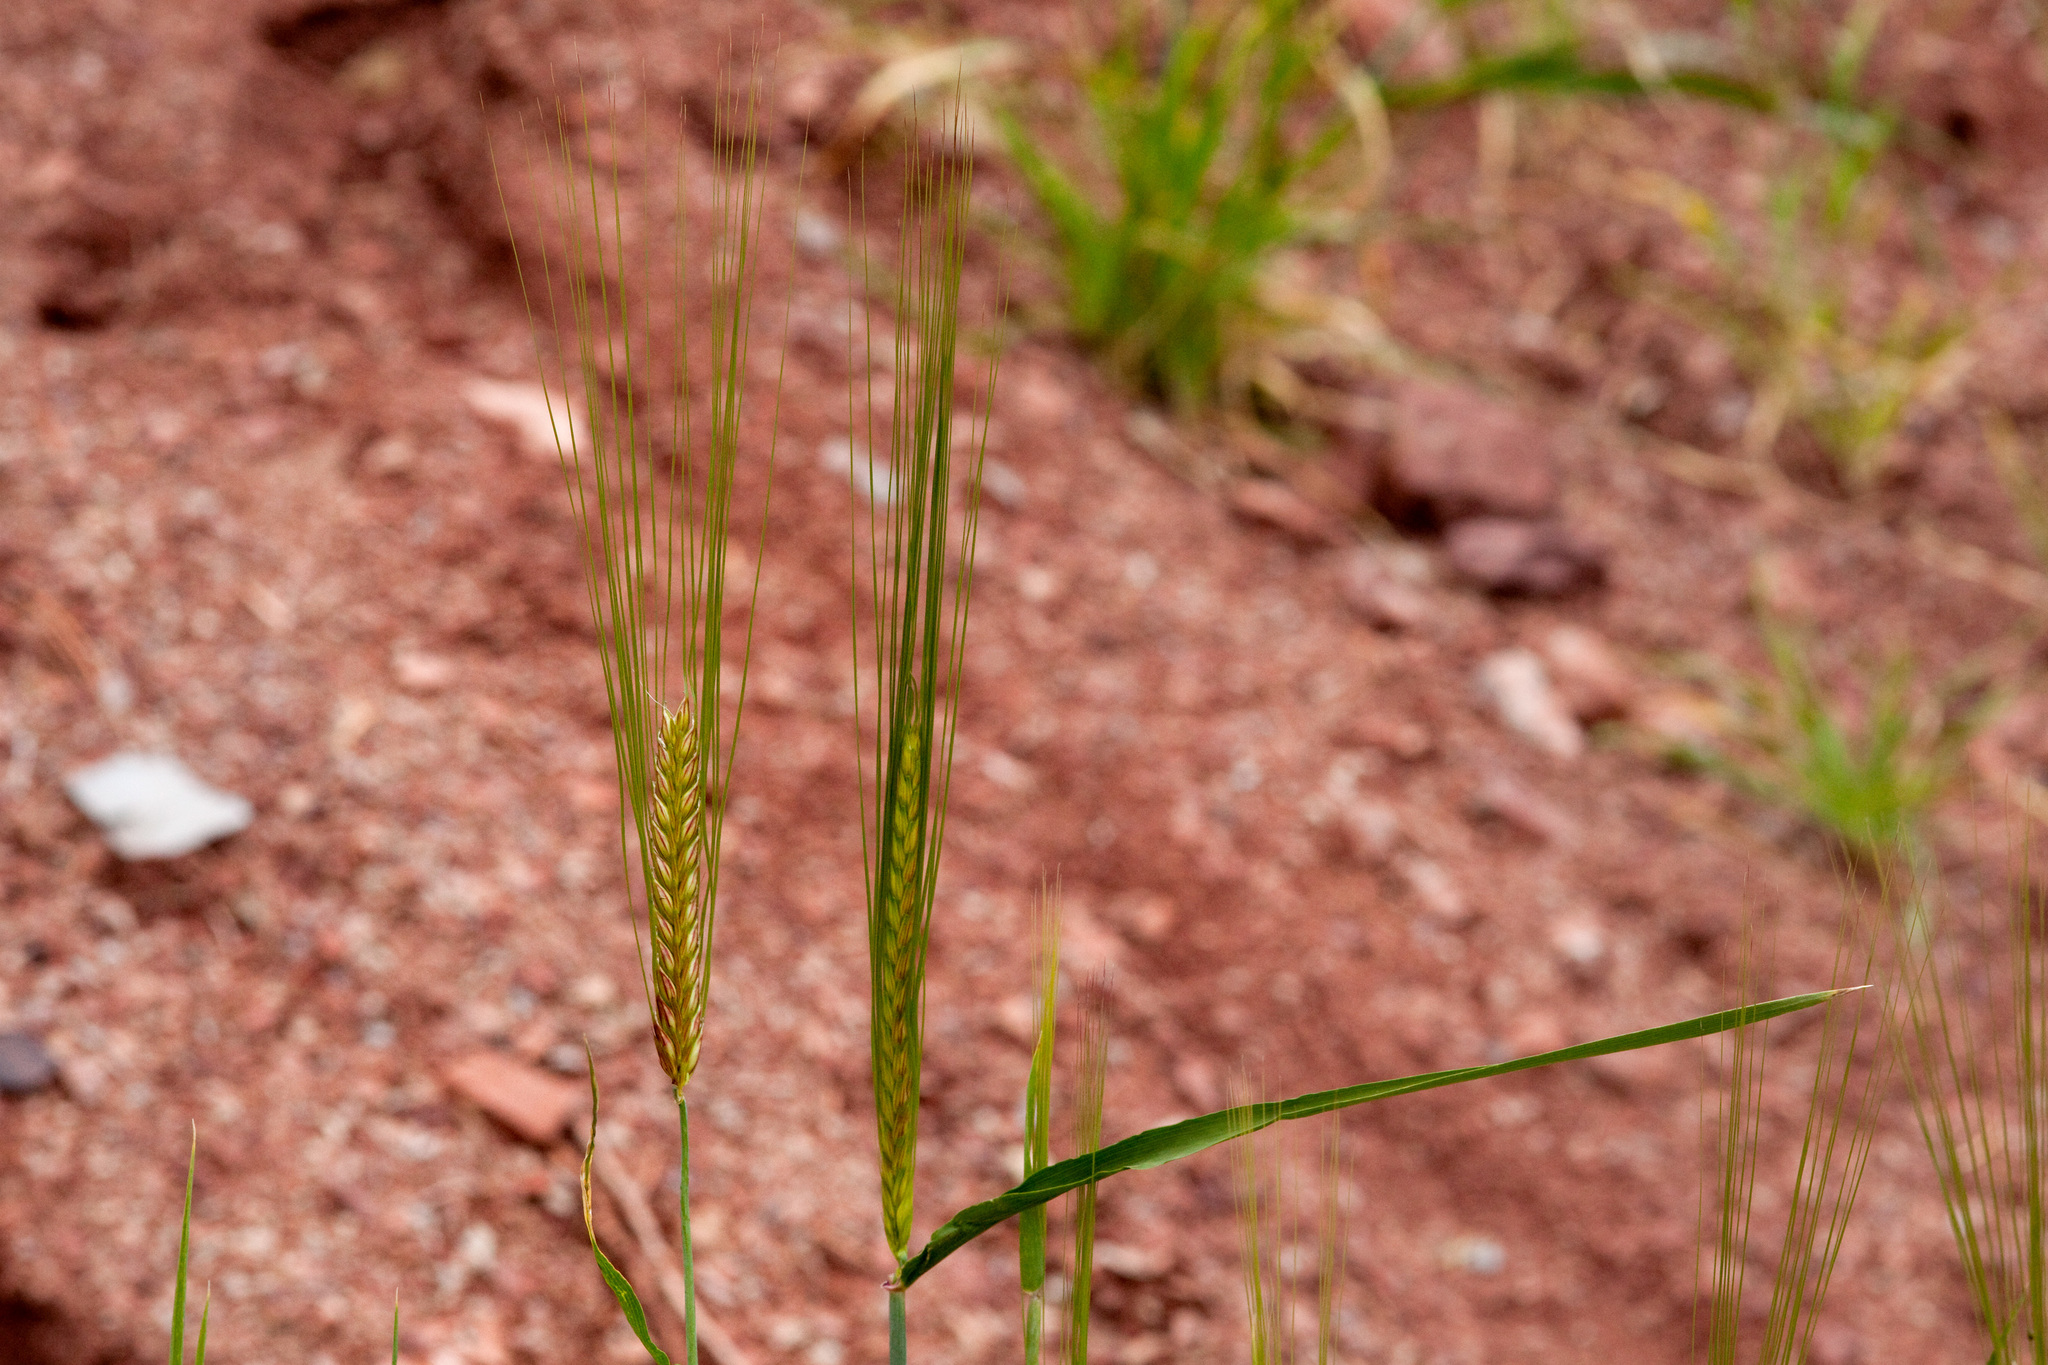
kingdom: Plantae
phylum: Tracheophyta
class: Liliopsida
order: Poales
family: Poaceae
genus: Hordeum
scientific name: Hordeum vulgare
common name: Common barley
